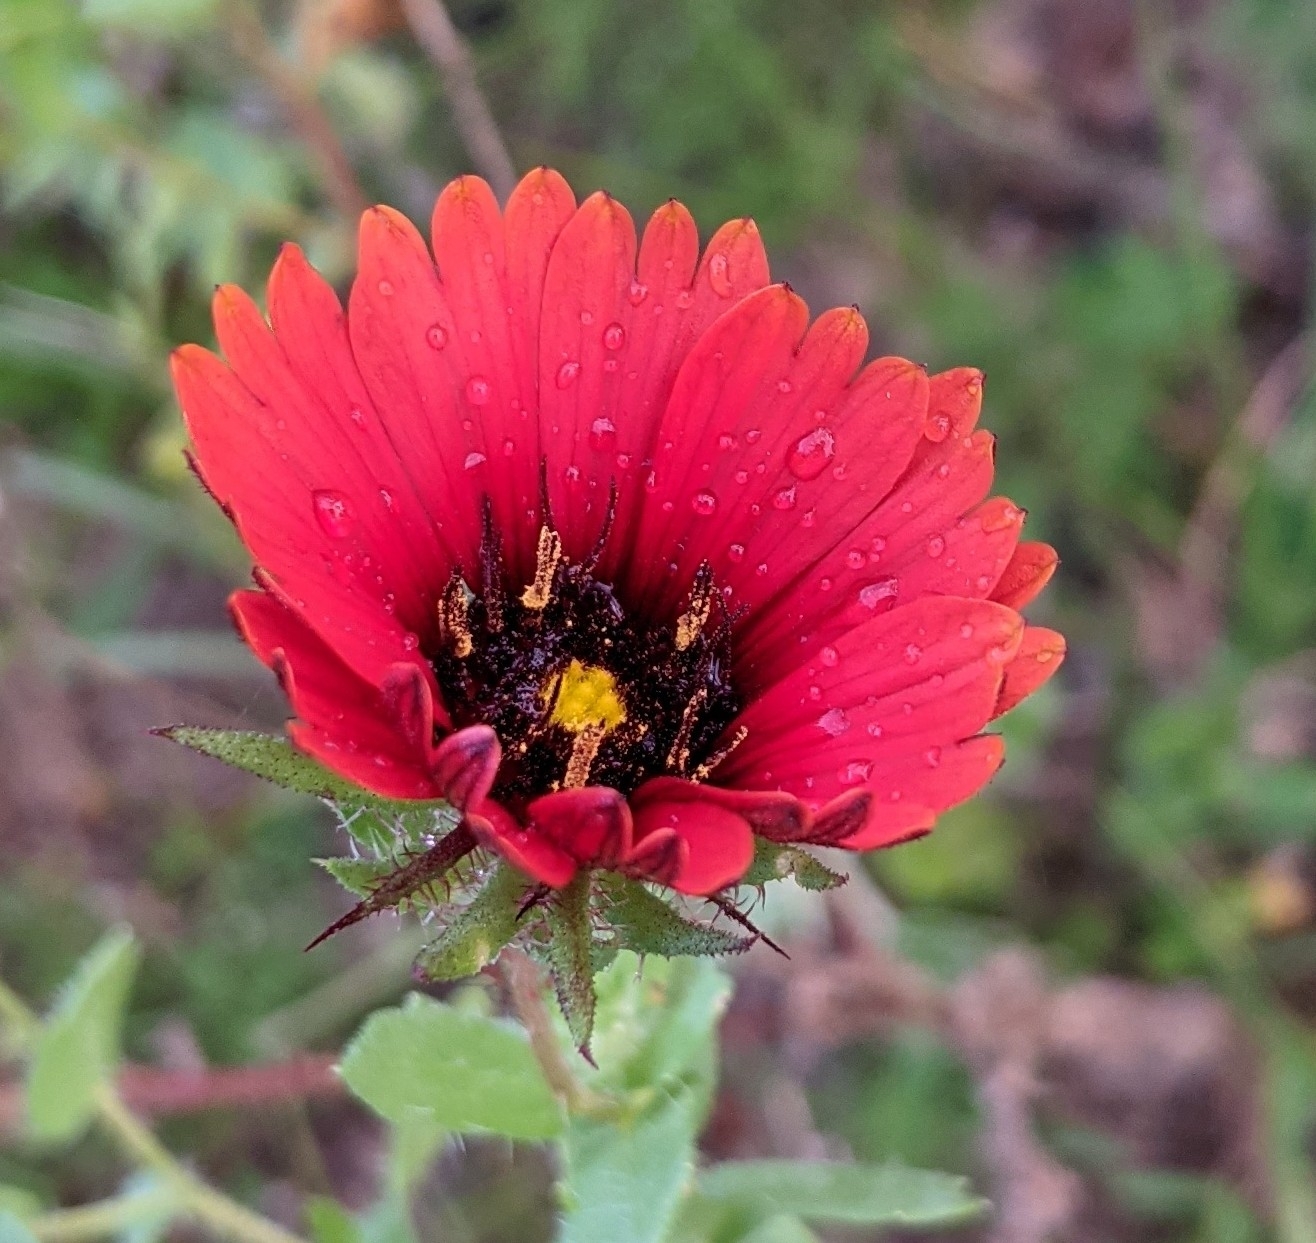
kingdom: Plantae
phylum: Tracheophyta
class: Magnoliopsida
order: Asterales
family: Asteraceae
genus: Gaillardia
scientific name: Gaillardia amblyodon
